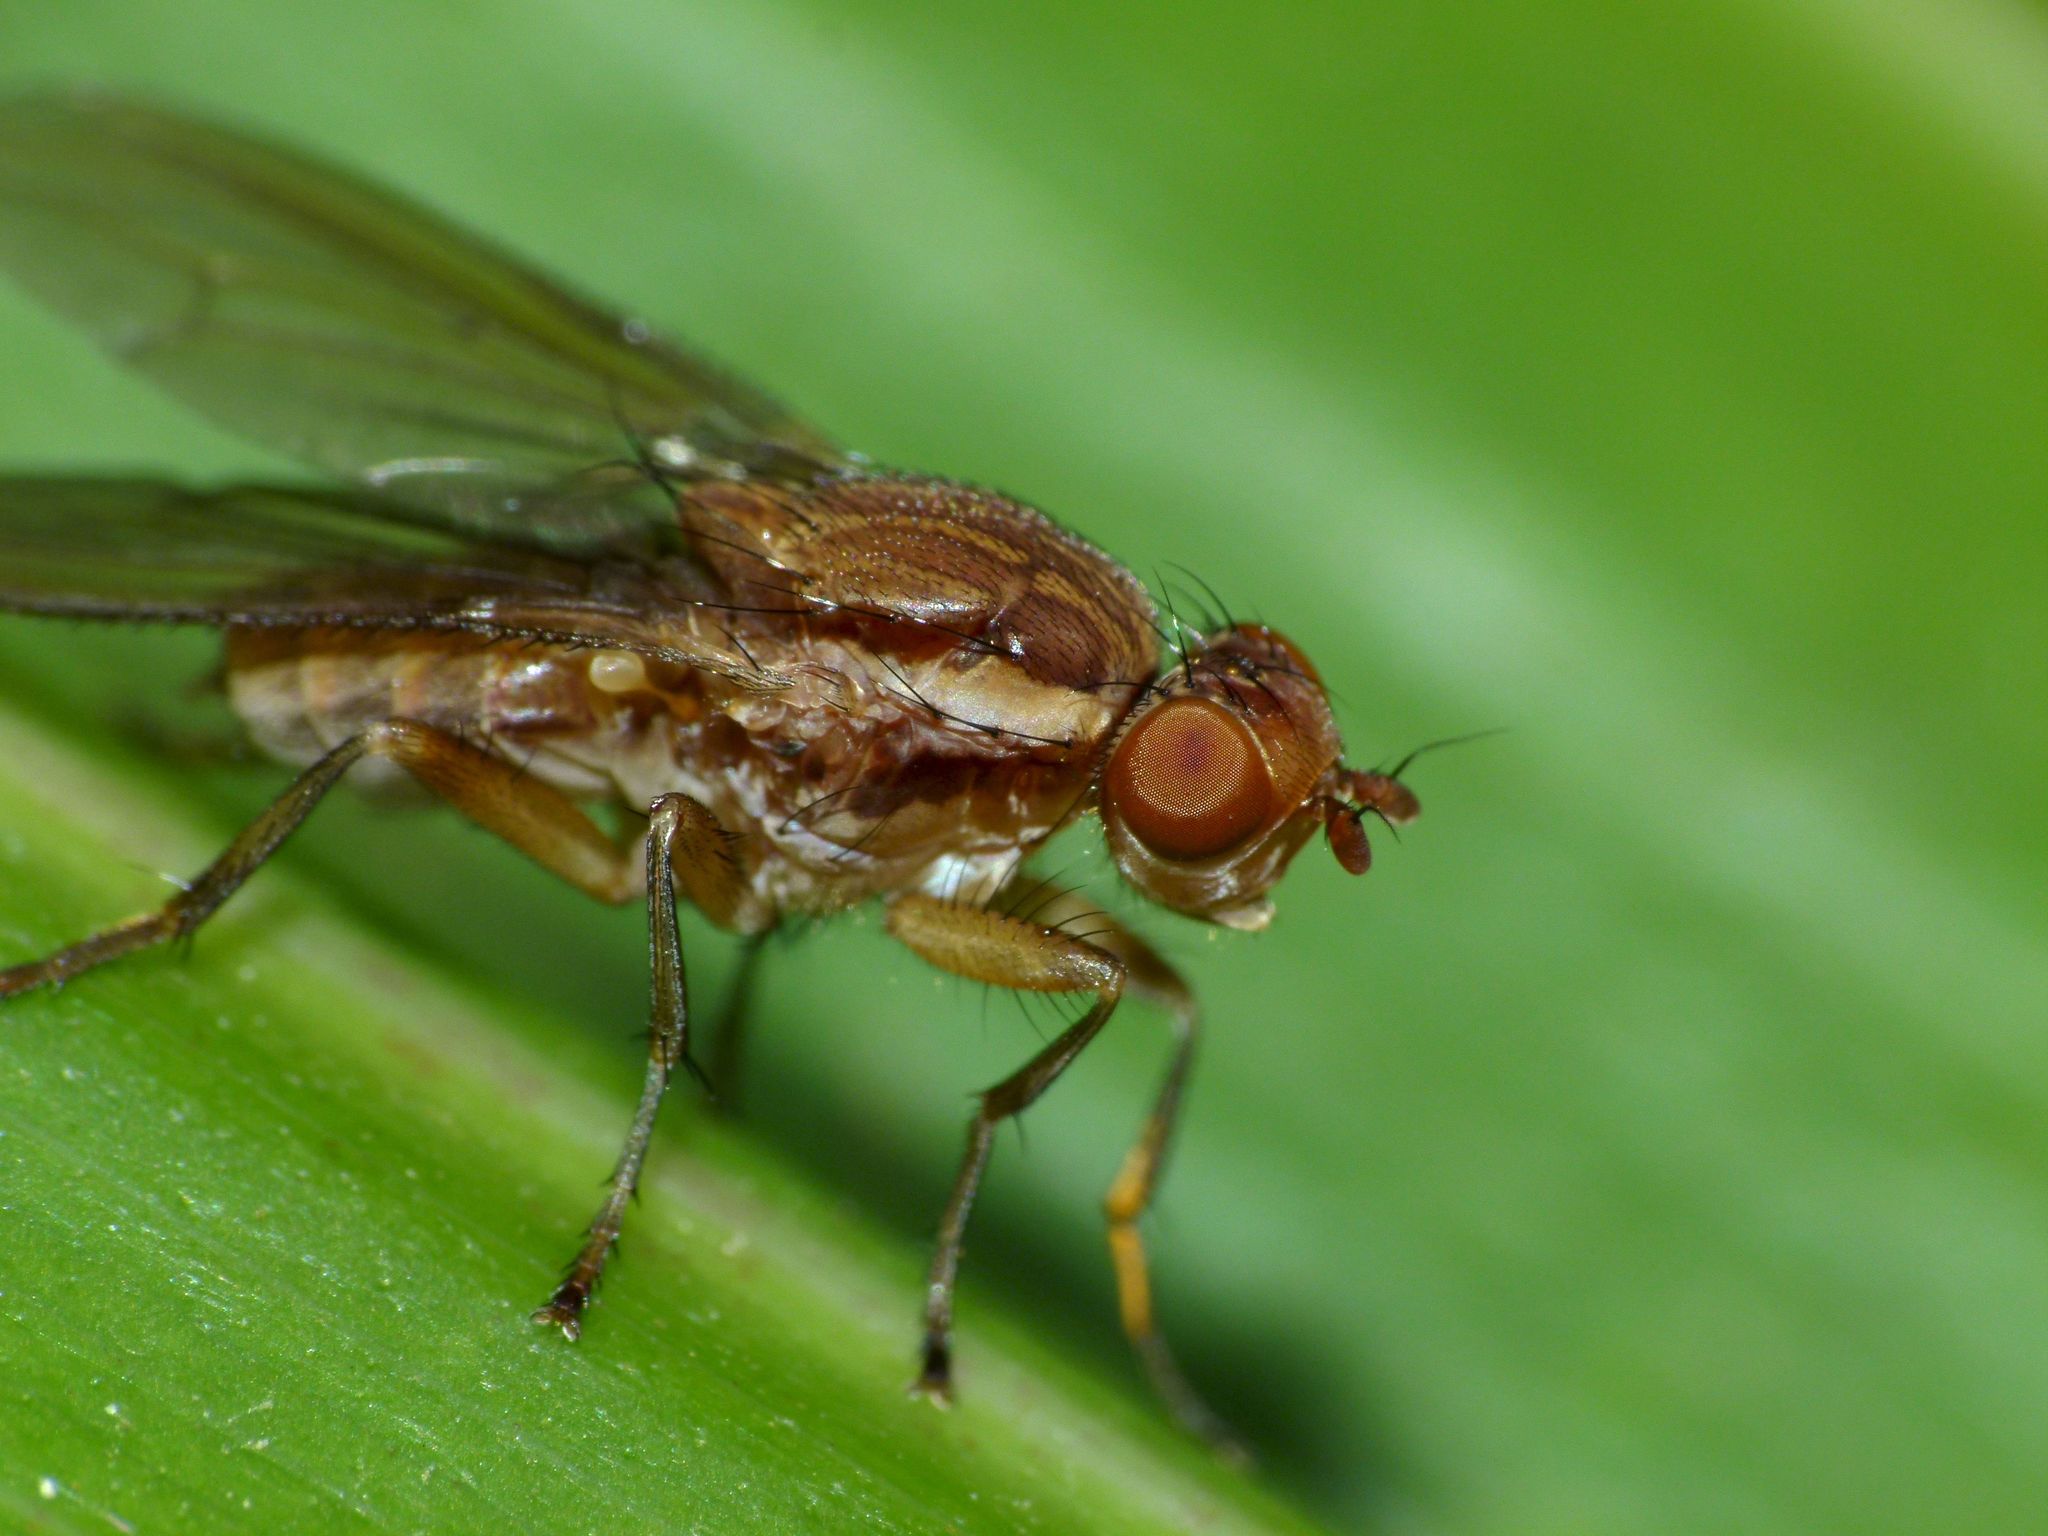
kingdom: Animalia
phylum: Arthropoda
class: Insecta
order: Diptera
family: Helosciomyzidae
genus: Napaeosciomyza
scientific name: Napaeosciomyza spinicosta
